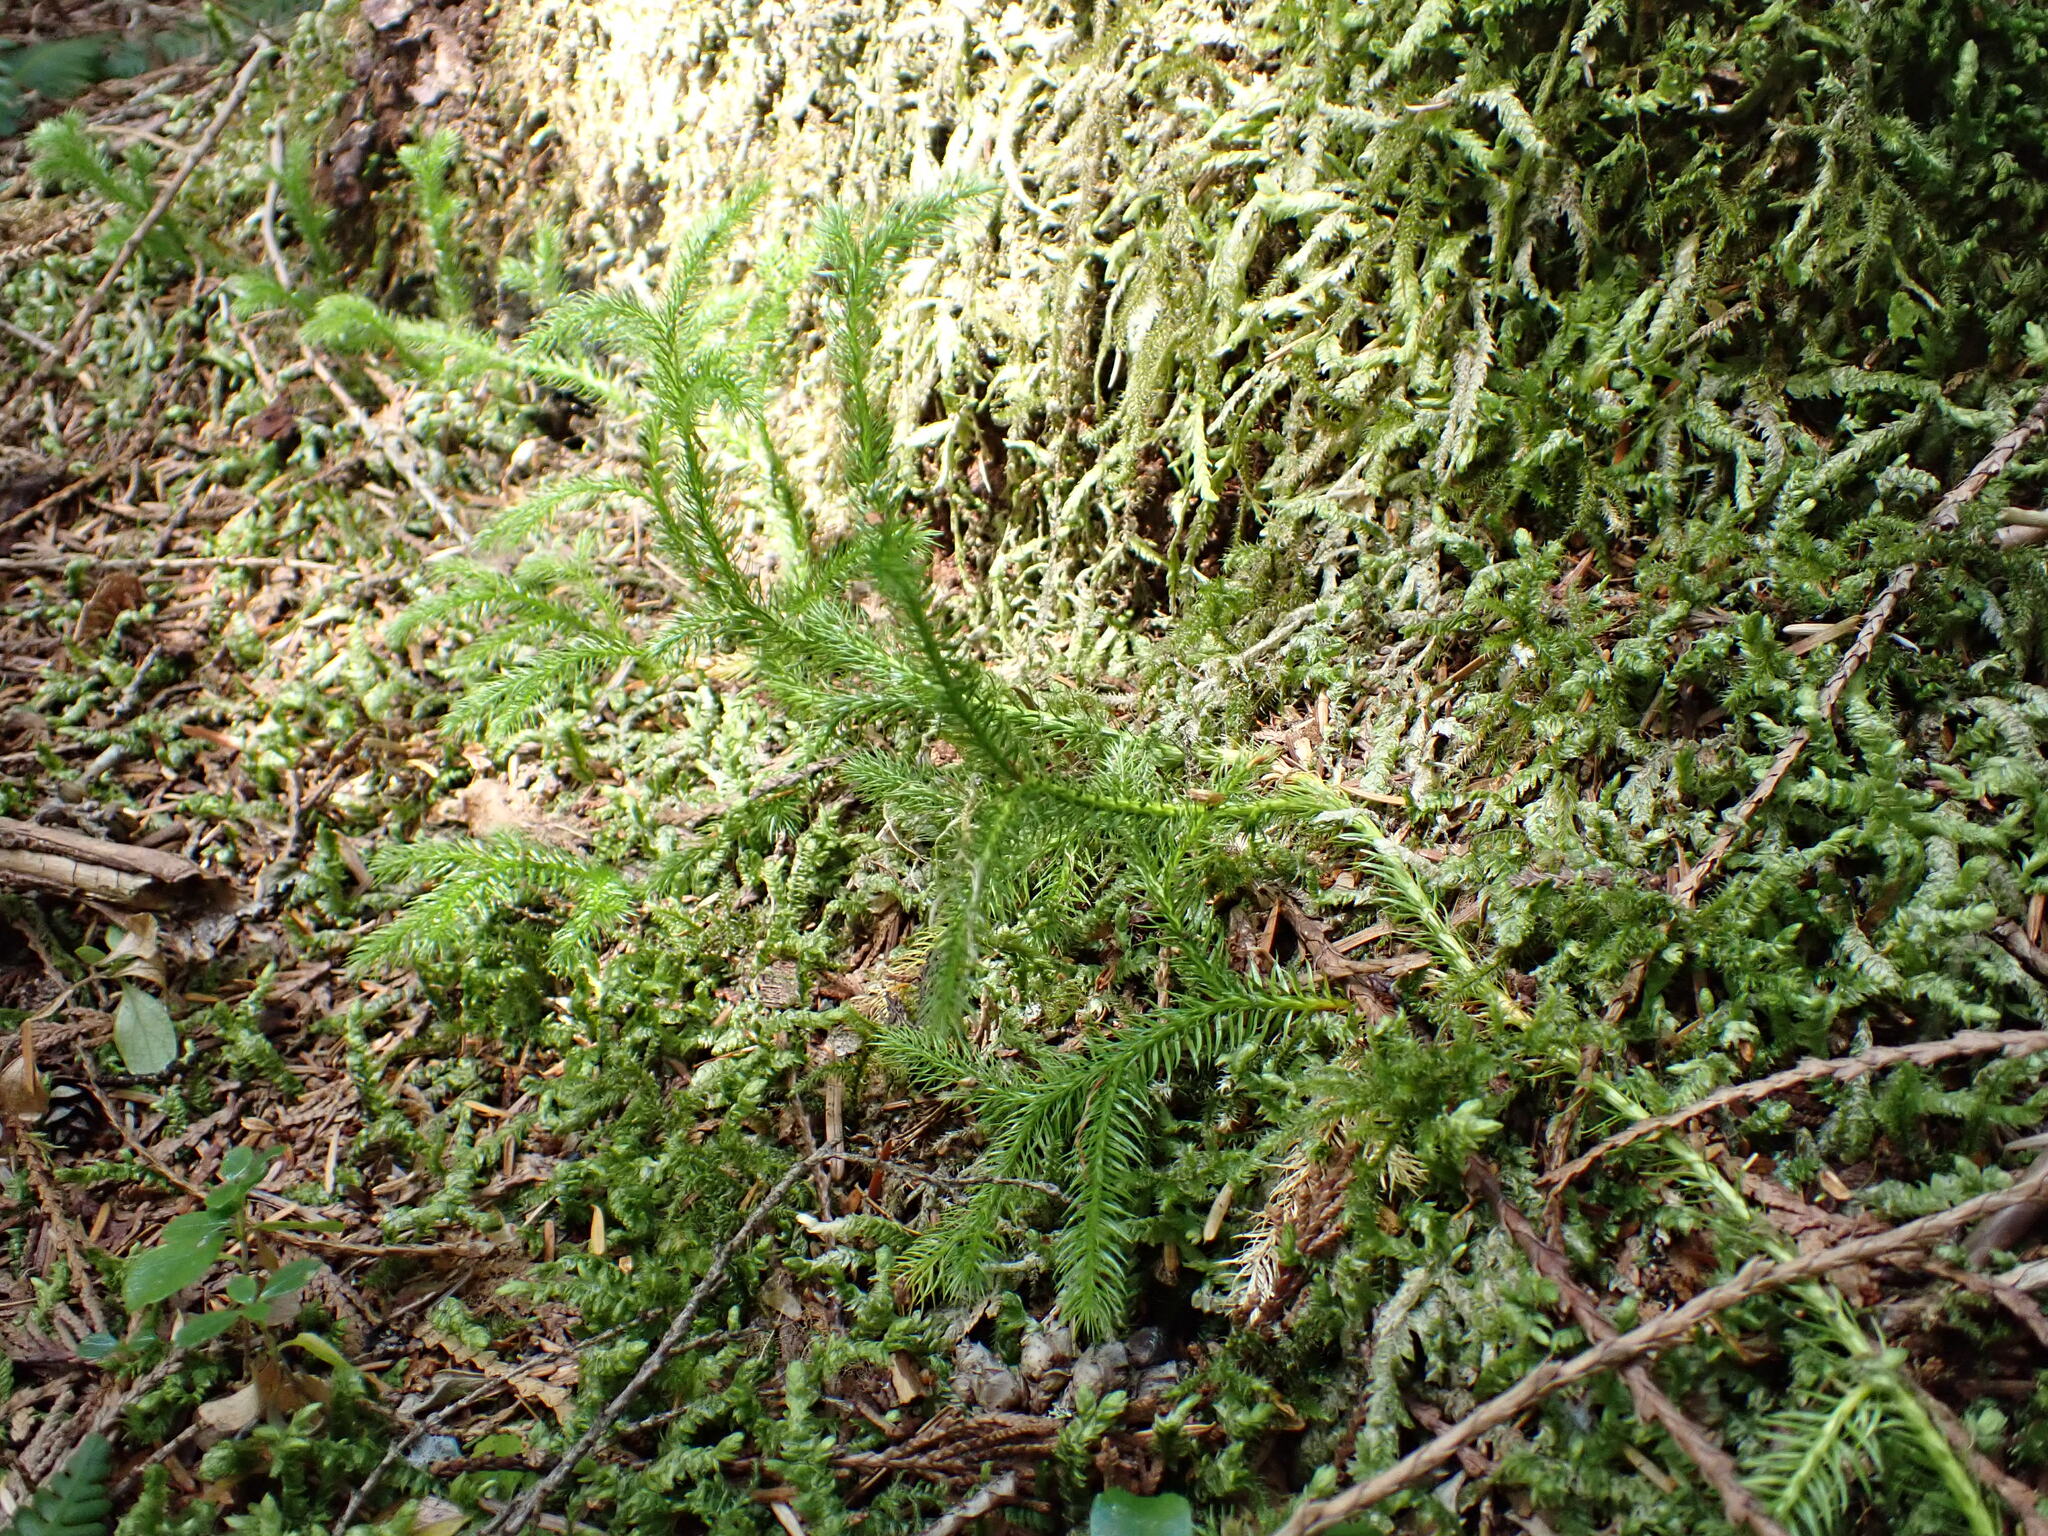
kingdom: Plantae
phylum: Tracheophyta
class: Lycopodiopsida
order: Lycopodiales
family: Lycopodiaceae
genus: Lycopodium
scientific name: Lycopodium clavatum
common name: Stag's-horn clubmoss
